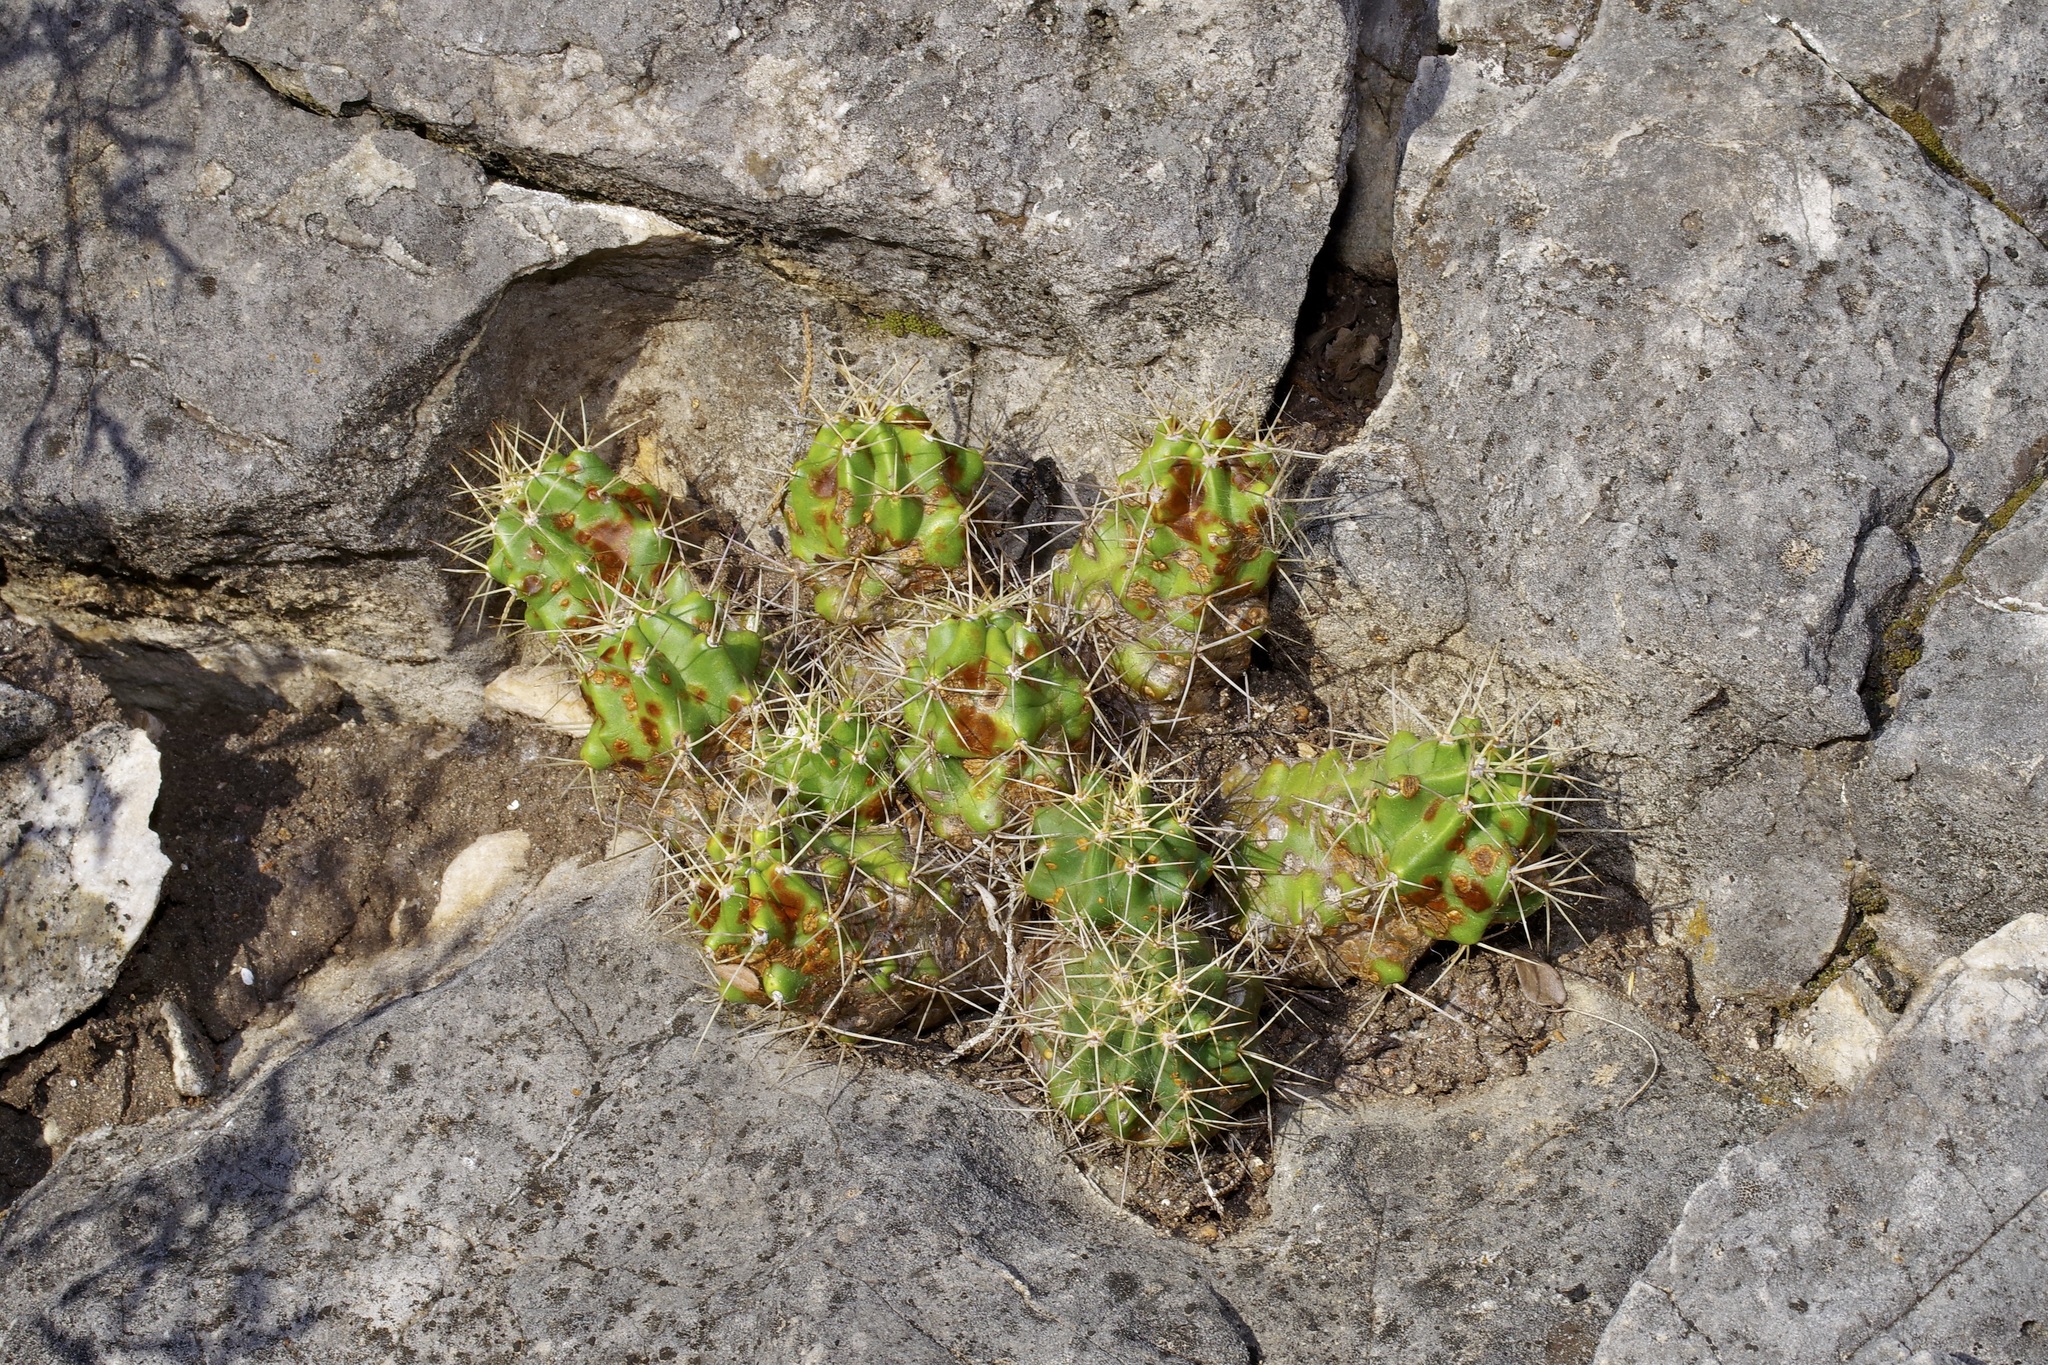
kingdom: Plantae
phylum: Tracheophyta
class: Magnoliopsida
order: Caryophyllales
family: Cactaceae
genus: Echinocereus
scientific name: Echinocereus coccineus
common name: Scarlet hedgehog cactus
